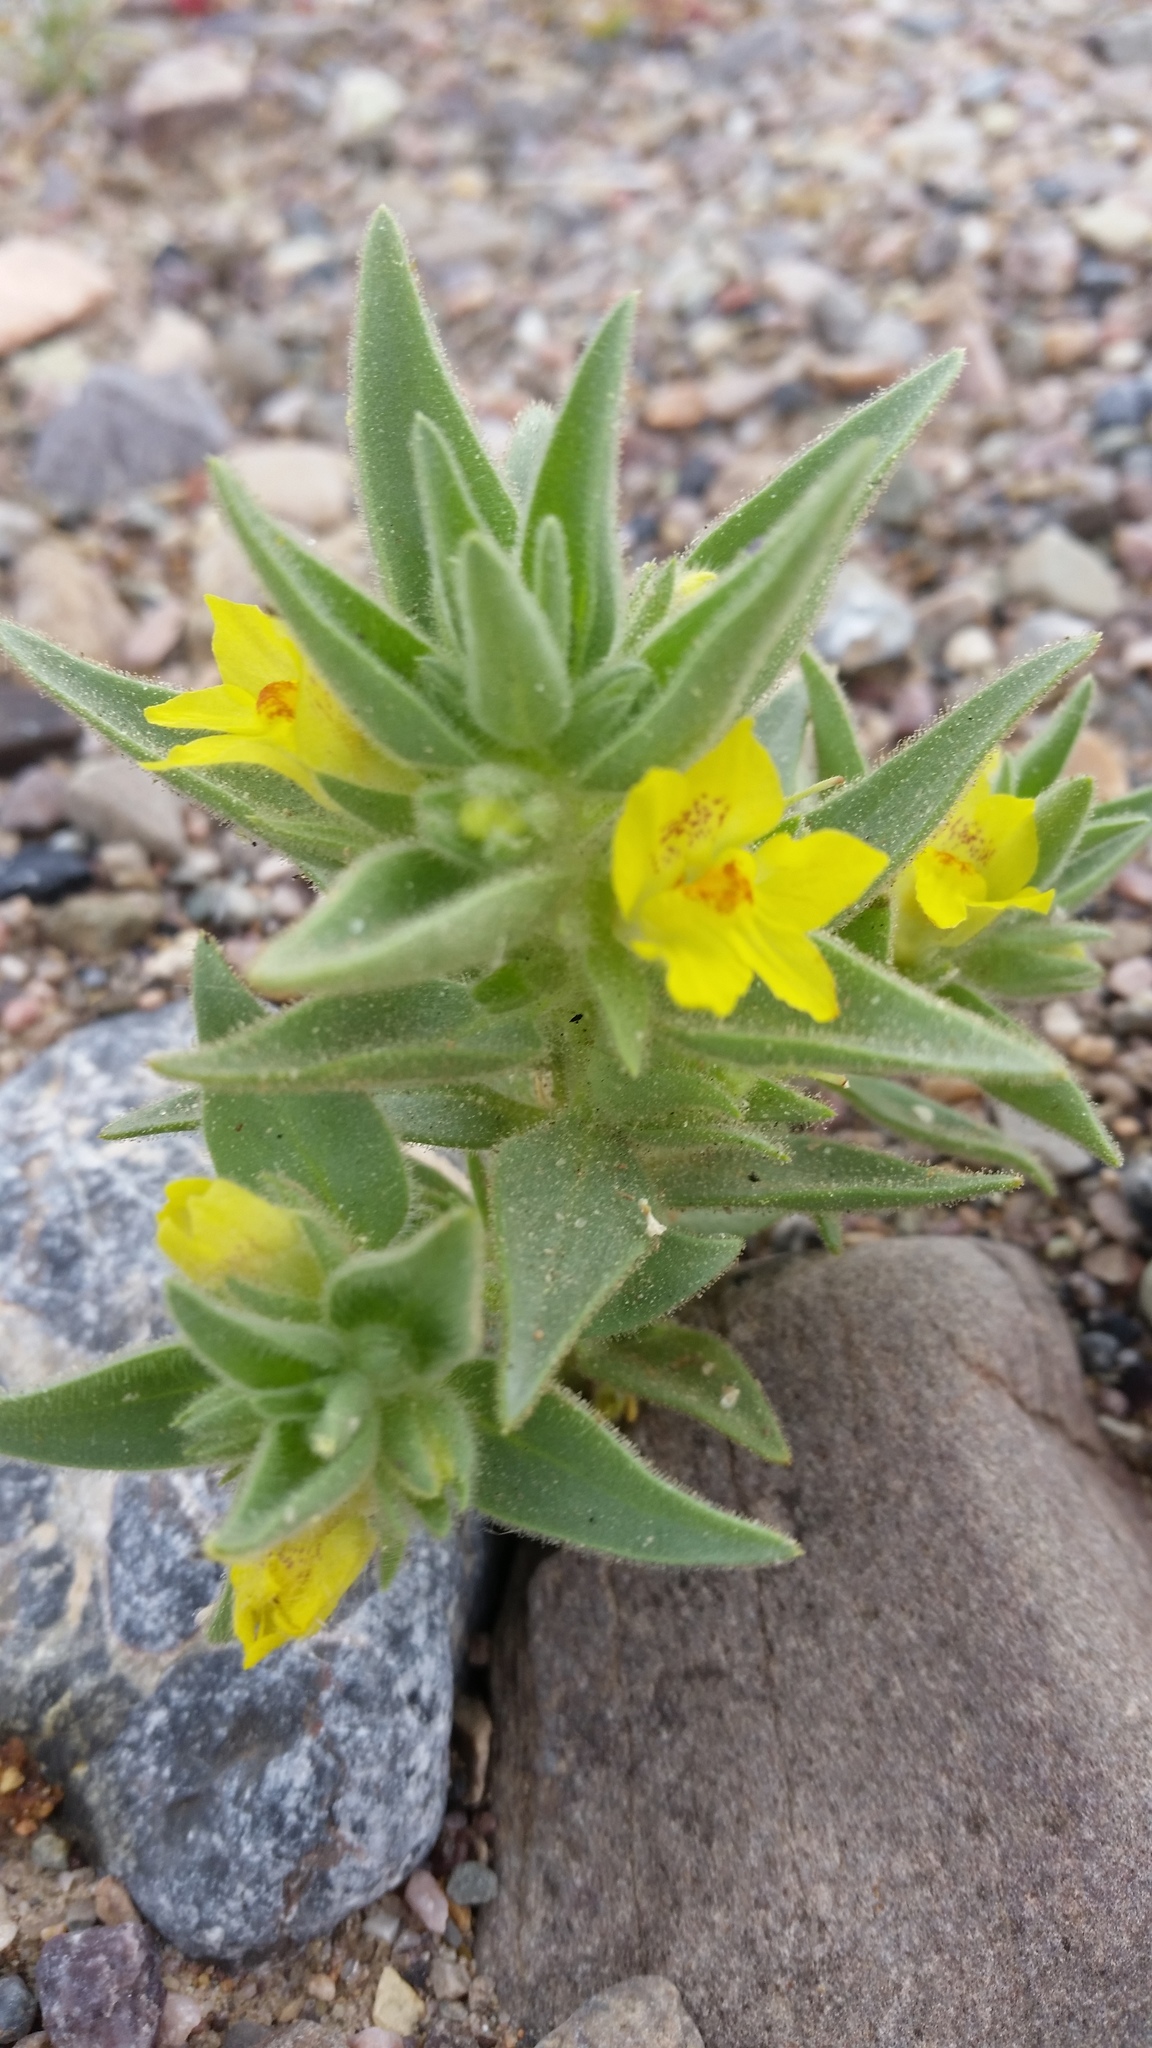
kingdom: Plantae
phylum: Tracheophyta
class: Magnoliopsida
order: Lamiales
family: Plantaginaceae
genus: Mohavea
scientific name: Mohavea breviflora
